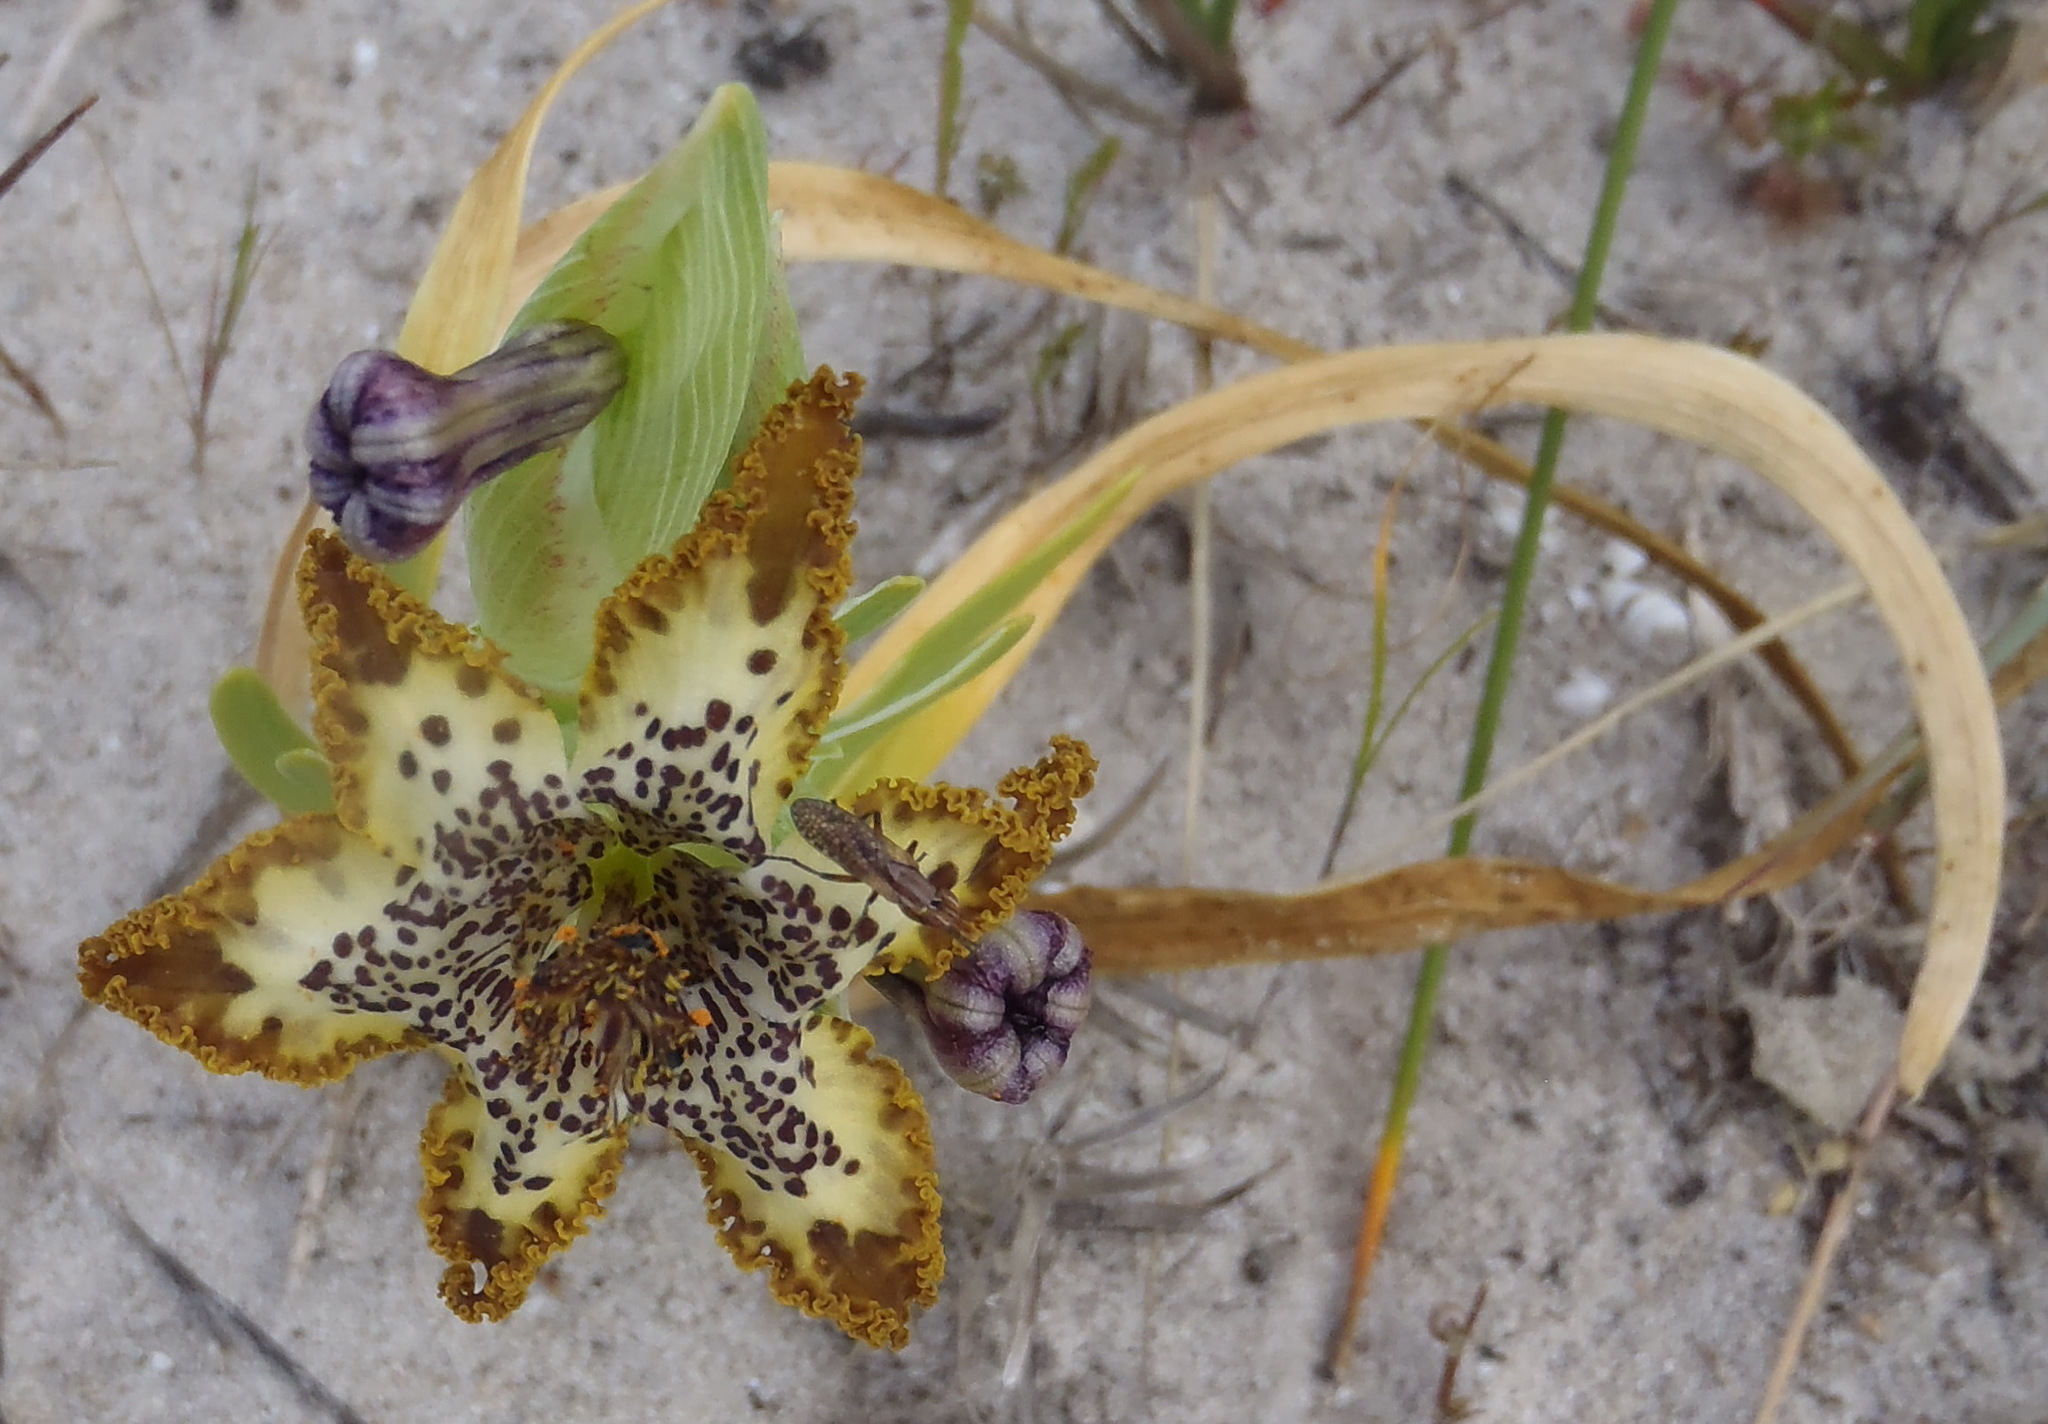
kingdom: Plantae
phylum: Tracheophyta
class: Liliopsida
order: Asparagales
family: Iridaceae
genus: Ferraria
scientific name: Ferraria crispa
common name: Black-flag
